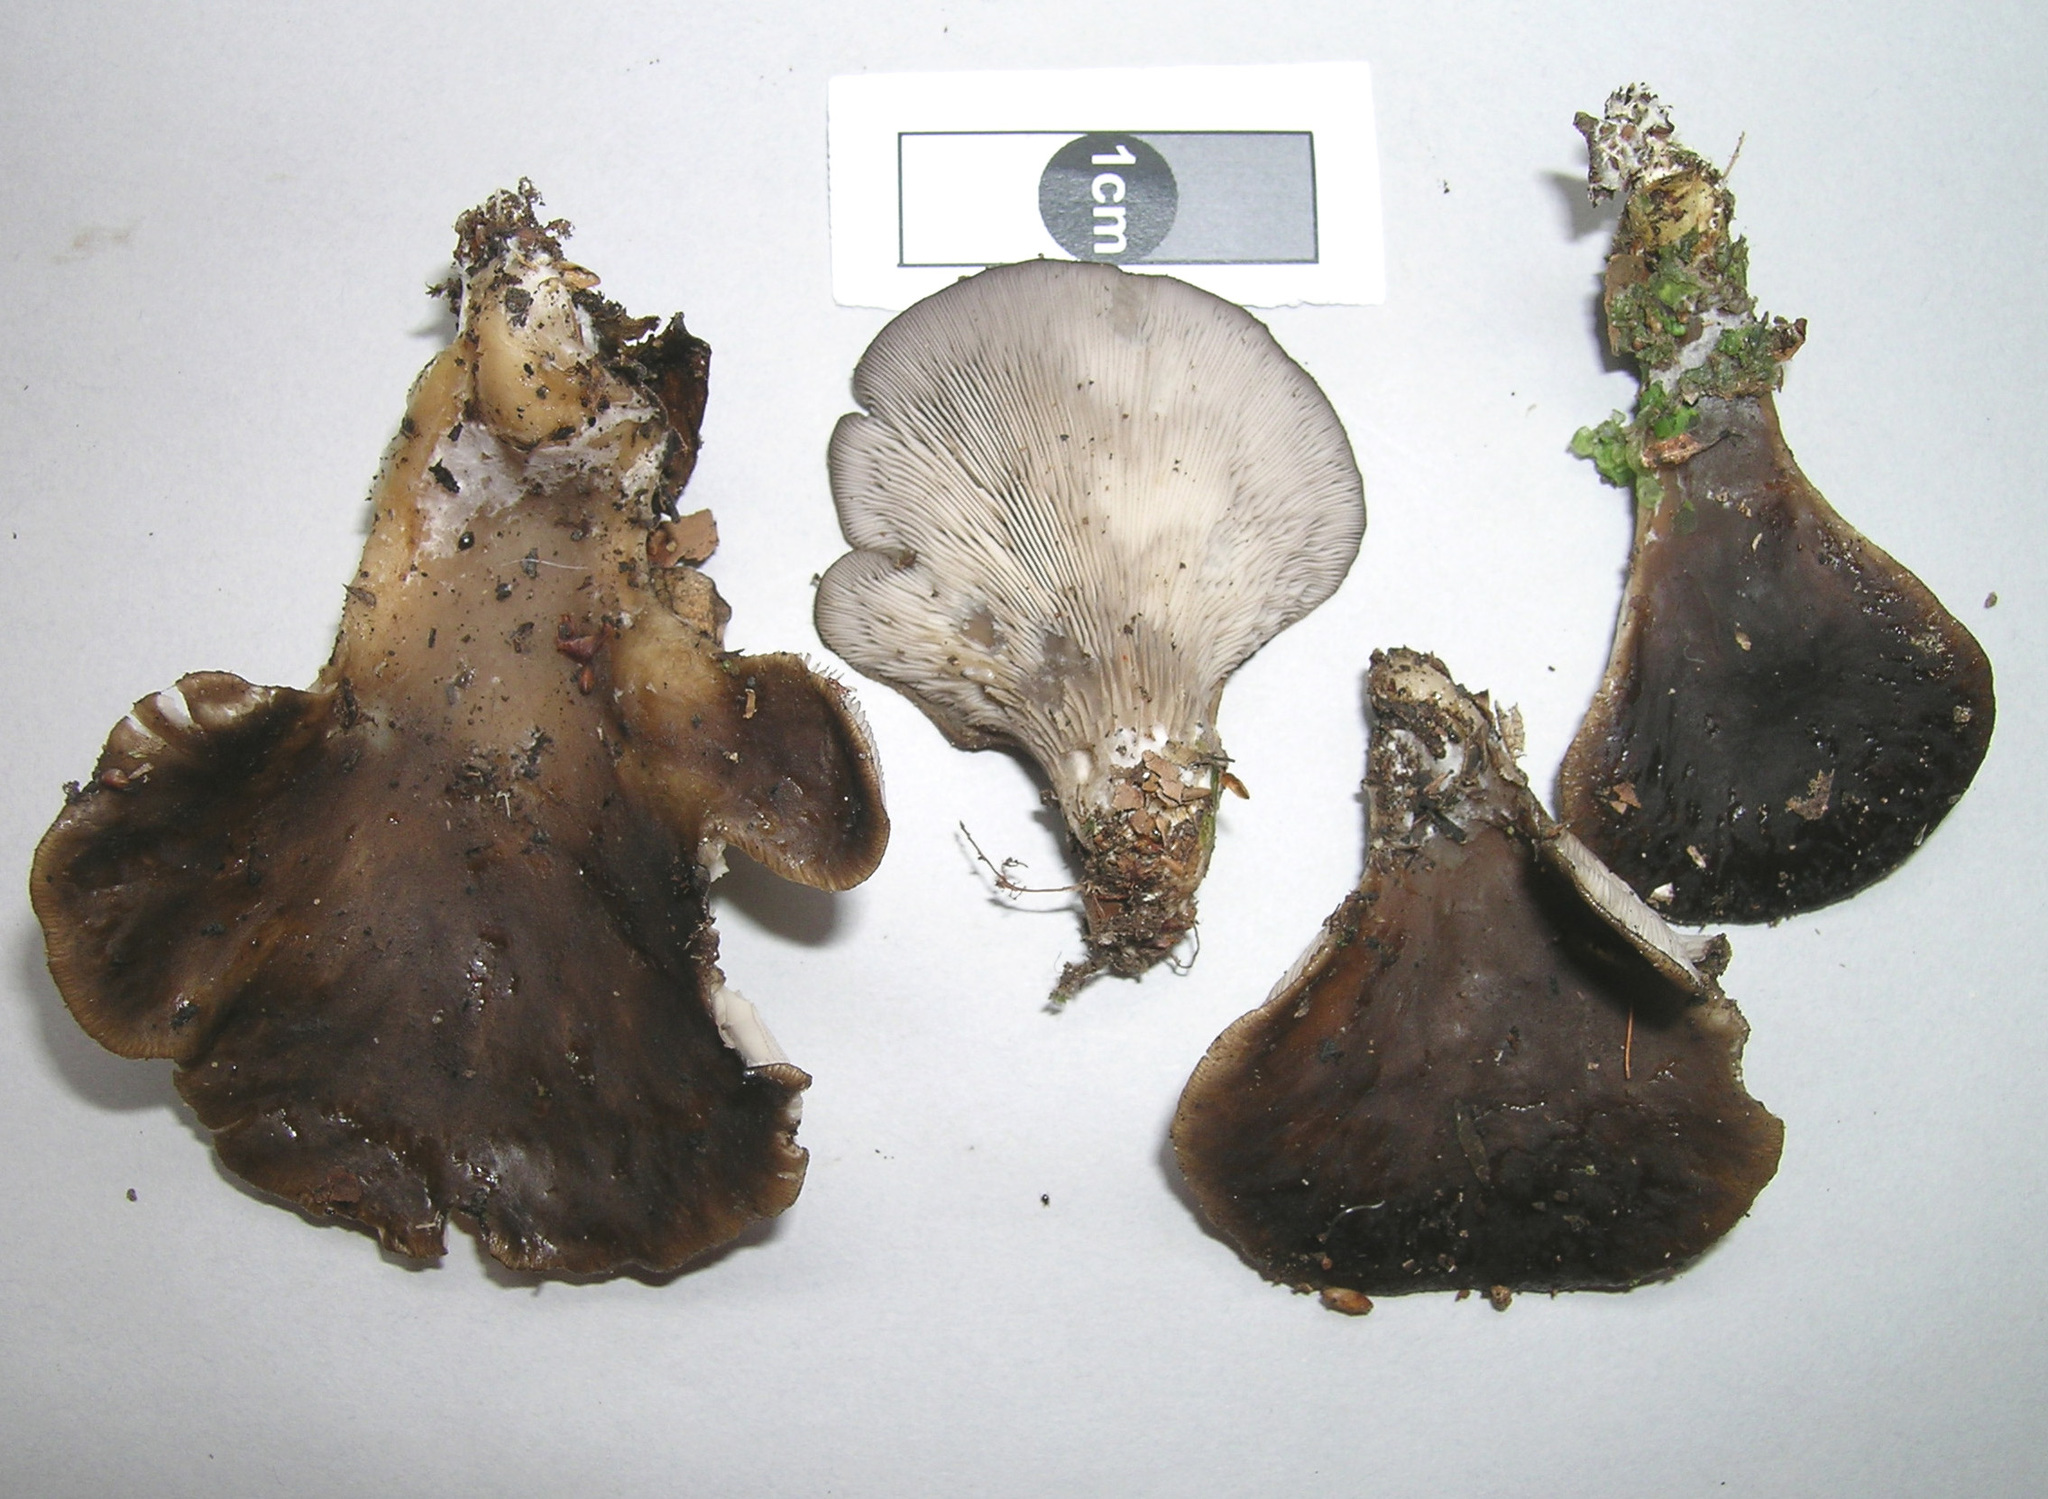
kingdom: Fungi
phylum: Basidiomycota
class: Agaricomycetes
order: Agaricales
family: Pleurotaceae
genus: Hohenbuehelia
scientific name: Hohenbuehelia petaloides
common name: Shoehorn oyster
